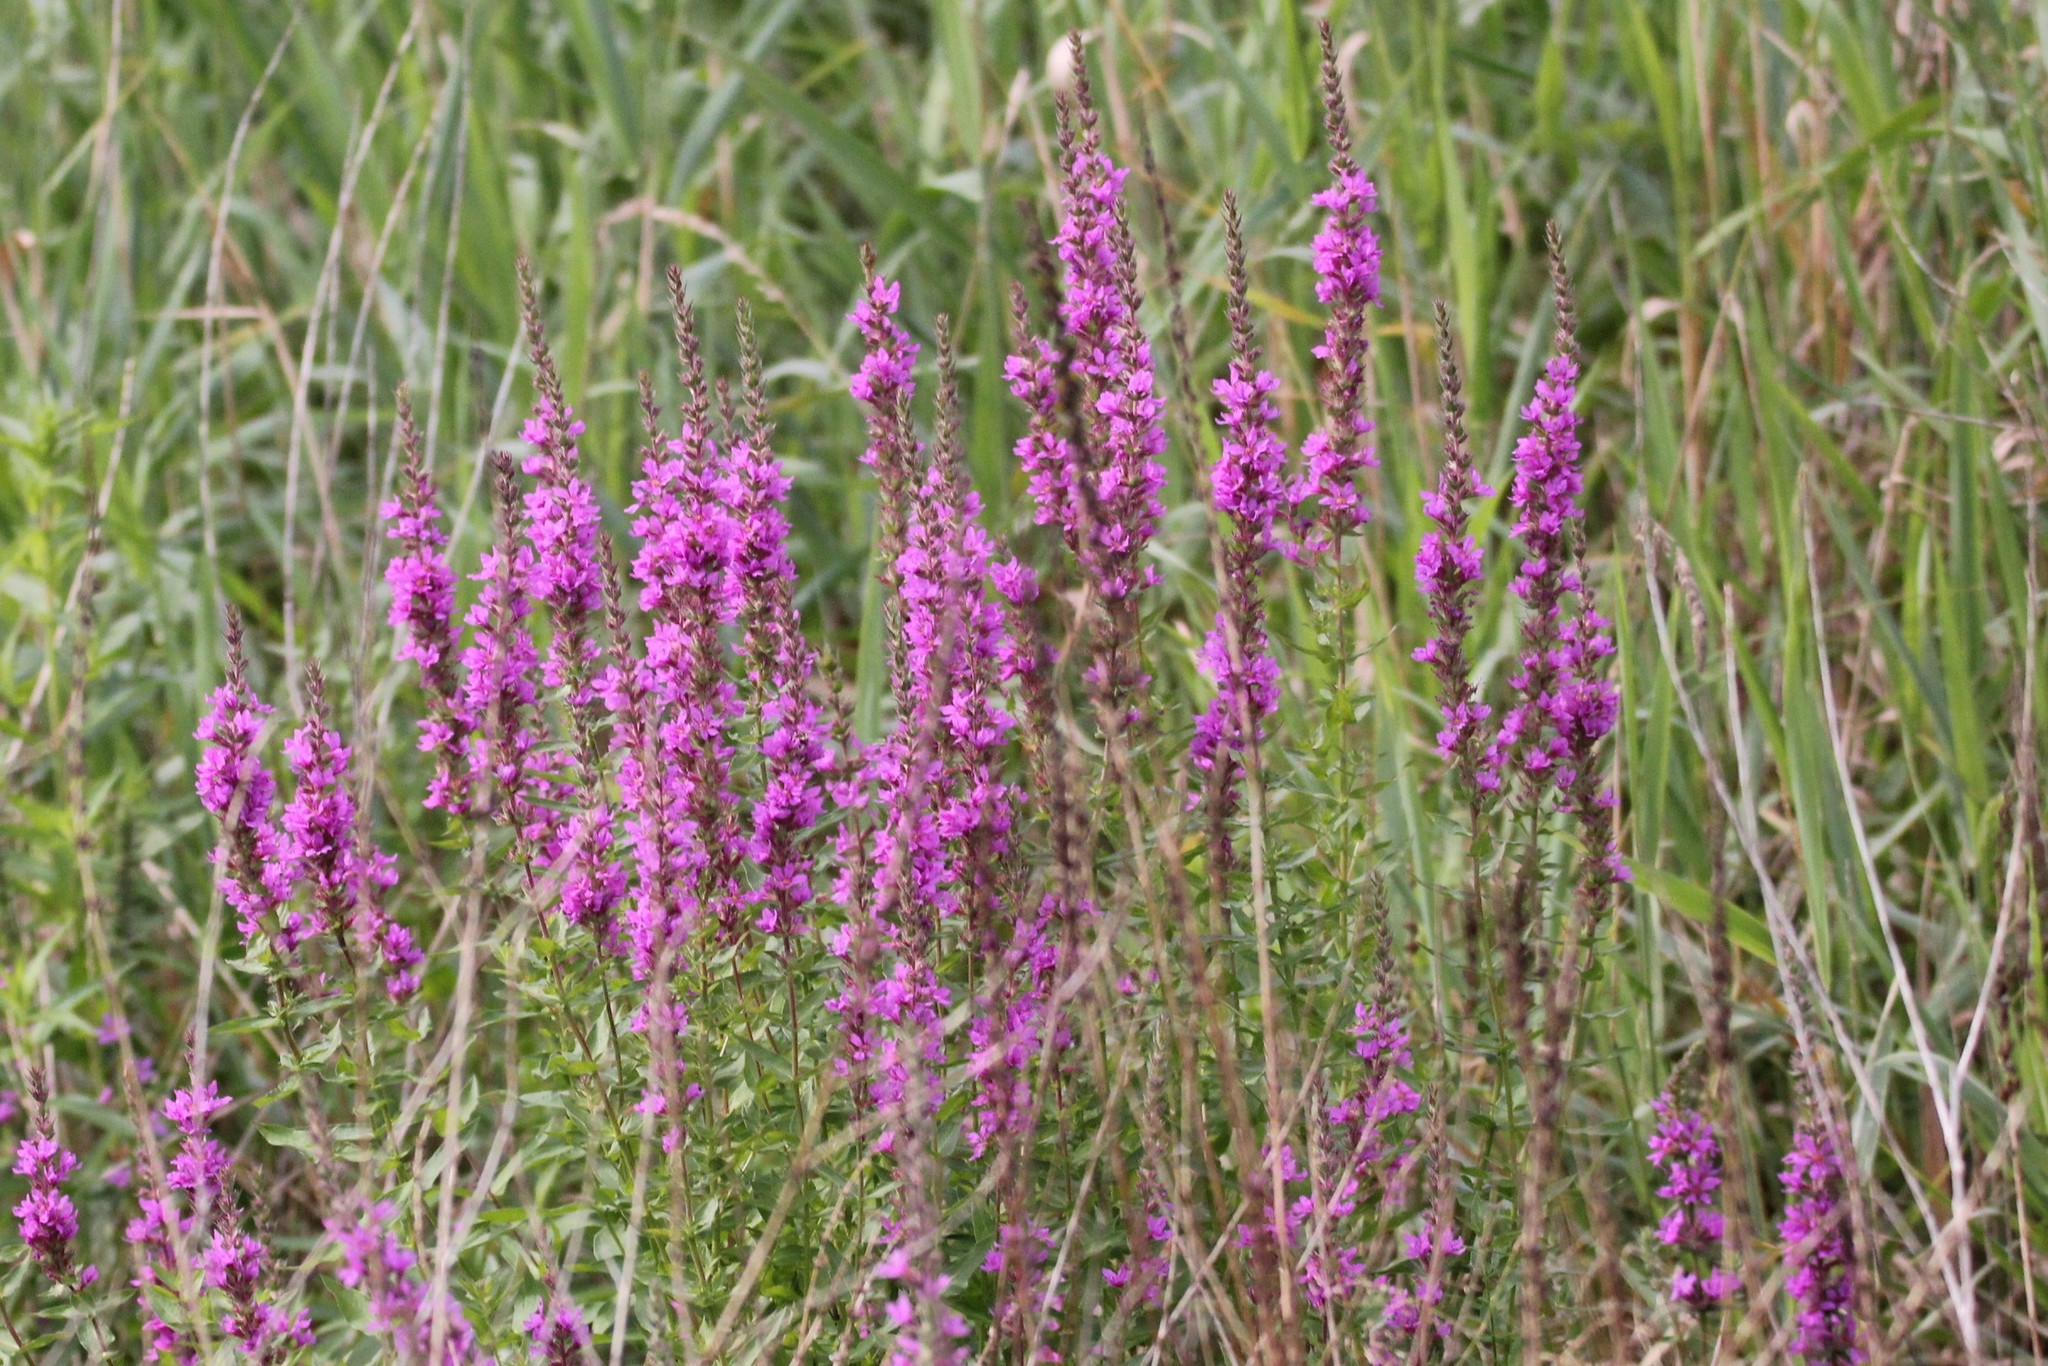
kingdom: Plantae
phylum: Tracheophyta
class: Magnoliopsida
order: Myrtales
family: Lythraceae
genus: Lythrum
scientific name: Lythrum salicaria
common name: Purple loosestrife
